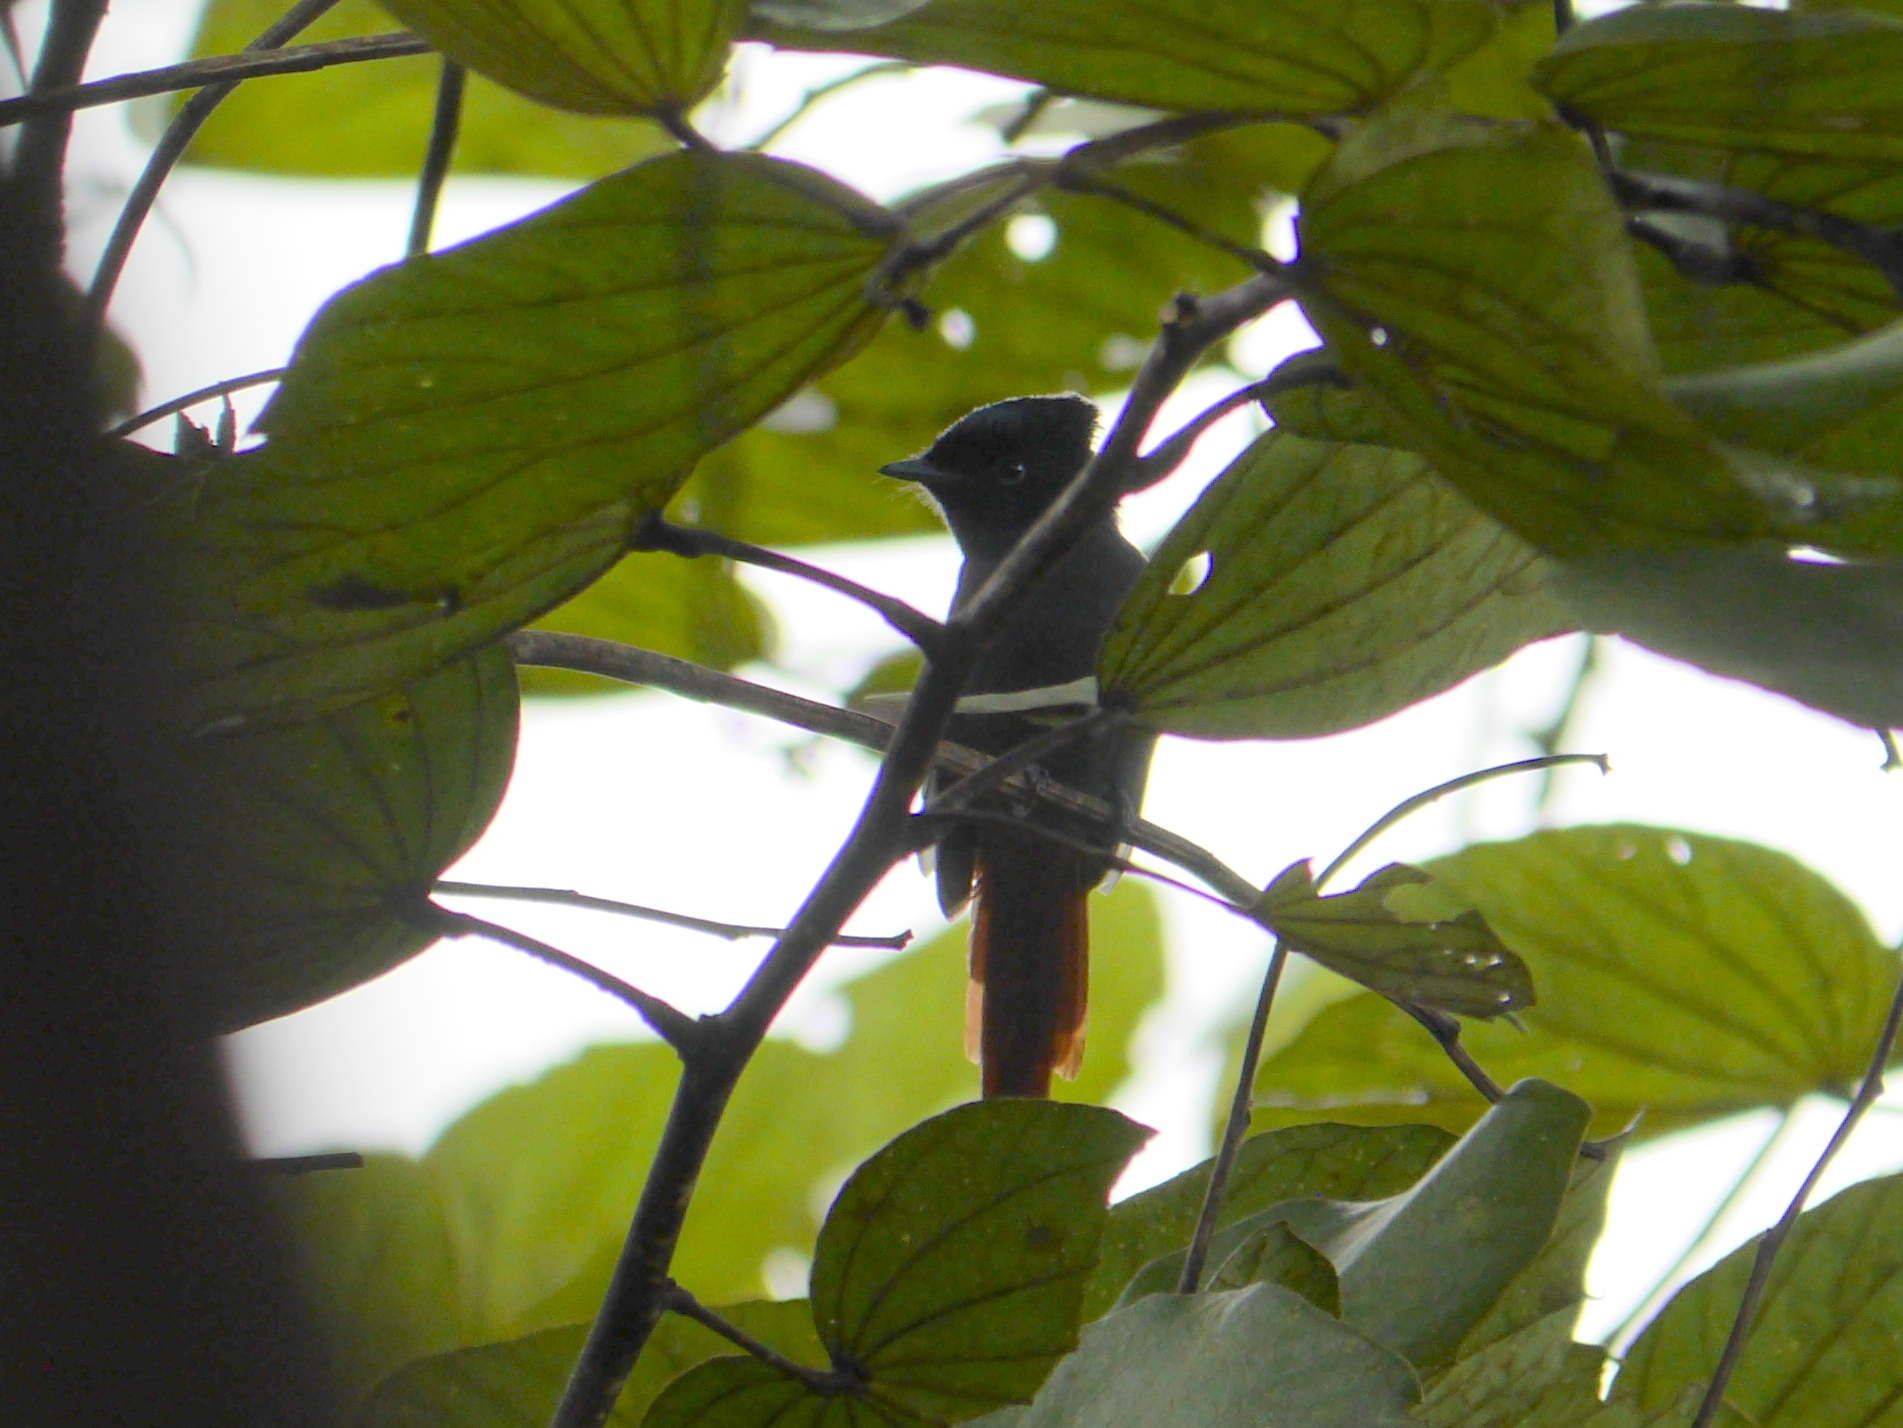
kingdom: Animalia
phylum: Chordata
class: Aves
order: Passeriformes
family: Monarchidae
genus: Terpsiphone
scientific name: Terpsiphone viridis
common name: African paradise flycatcher
